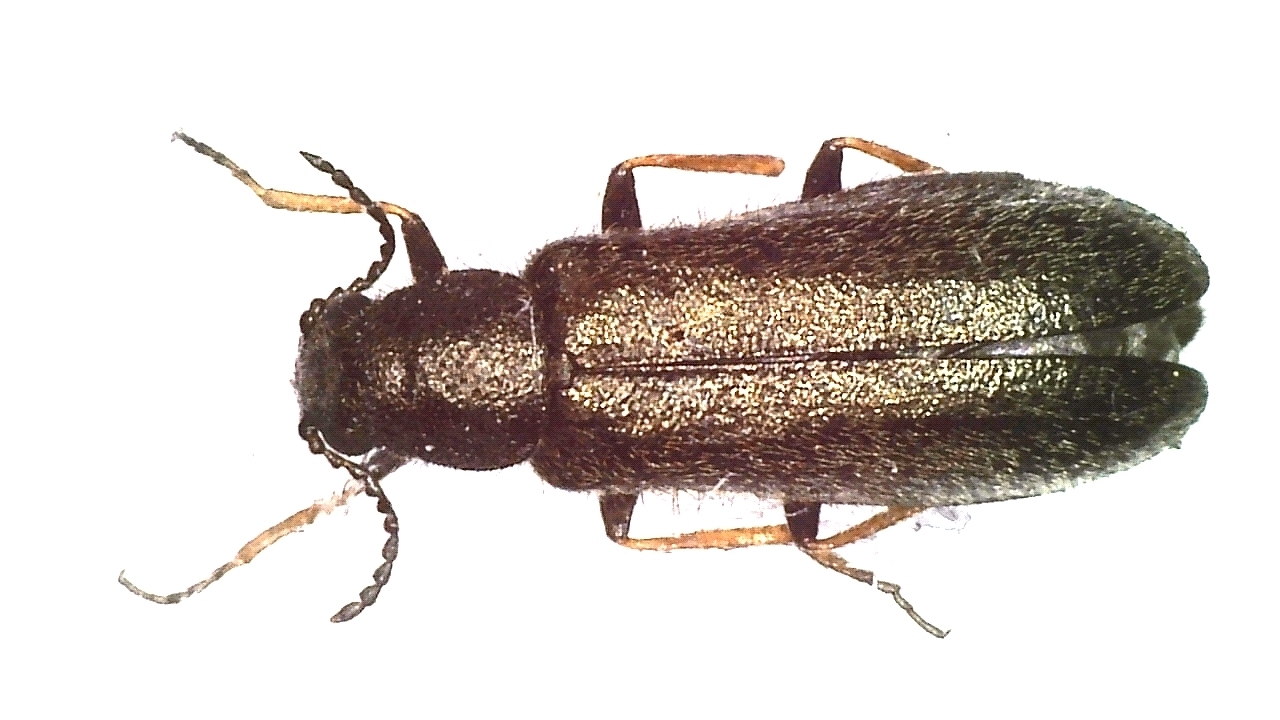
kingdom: Animalia
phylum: Arthropoda
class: Insecta
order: Coleoptera
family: Melyridae
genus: Dasytes
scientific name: Dasytes plumbeus
